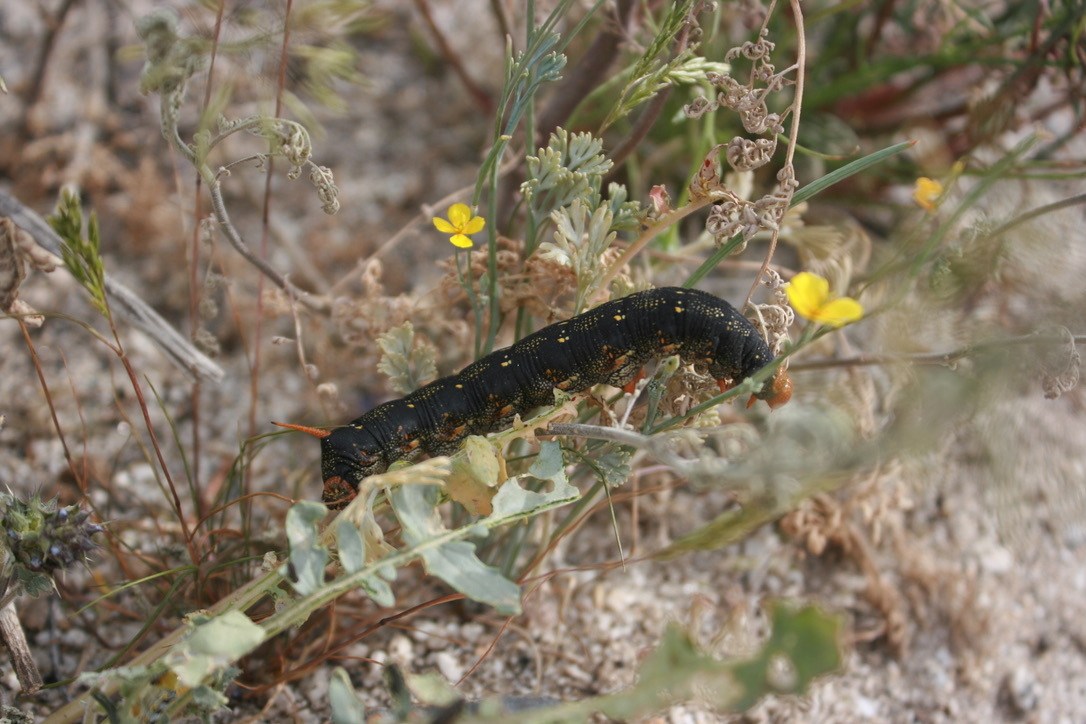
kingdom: Animalia
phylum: Arthropoda
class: Insecta
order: Lepidoptera
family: Sphingidae
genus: Hyles
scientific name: Hyles lineata
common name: White-lined sphinx
